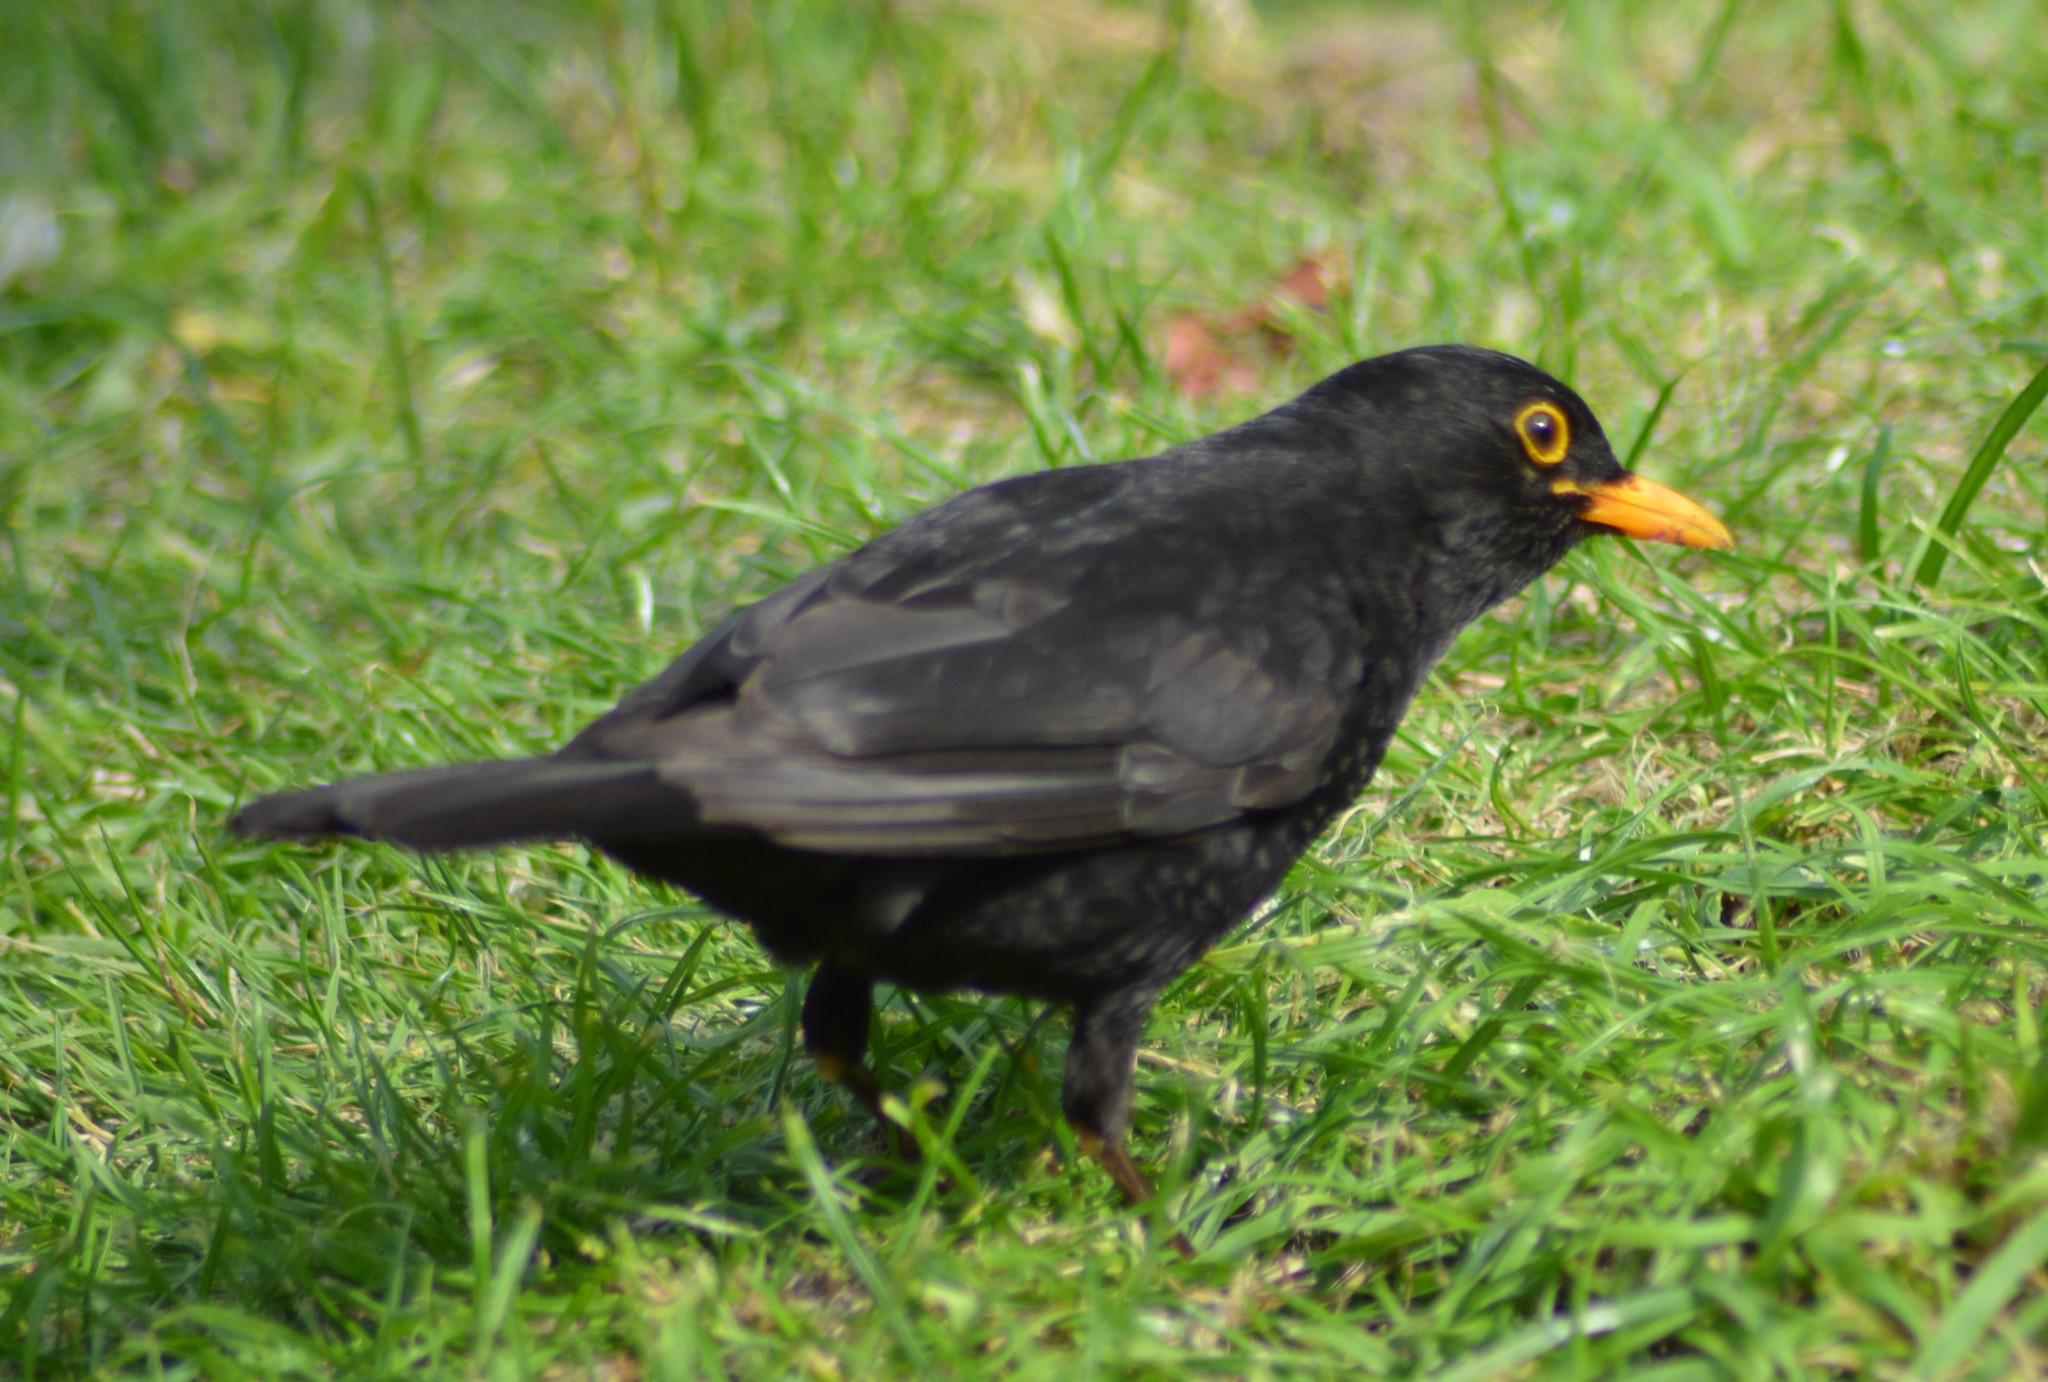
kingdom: Animalia
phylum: Chordata
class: Aves
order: Passeriformes
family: Turdidae
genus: Turdus
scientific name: Turdus merula
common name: Common blackbird
